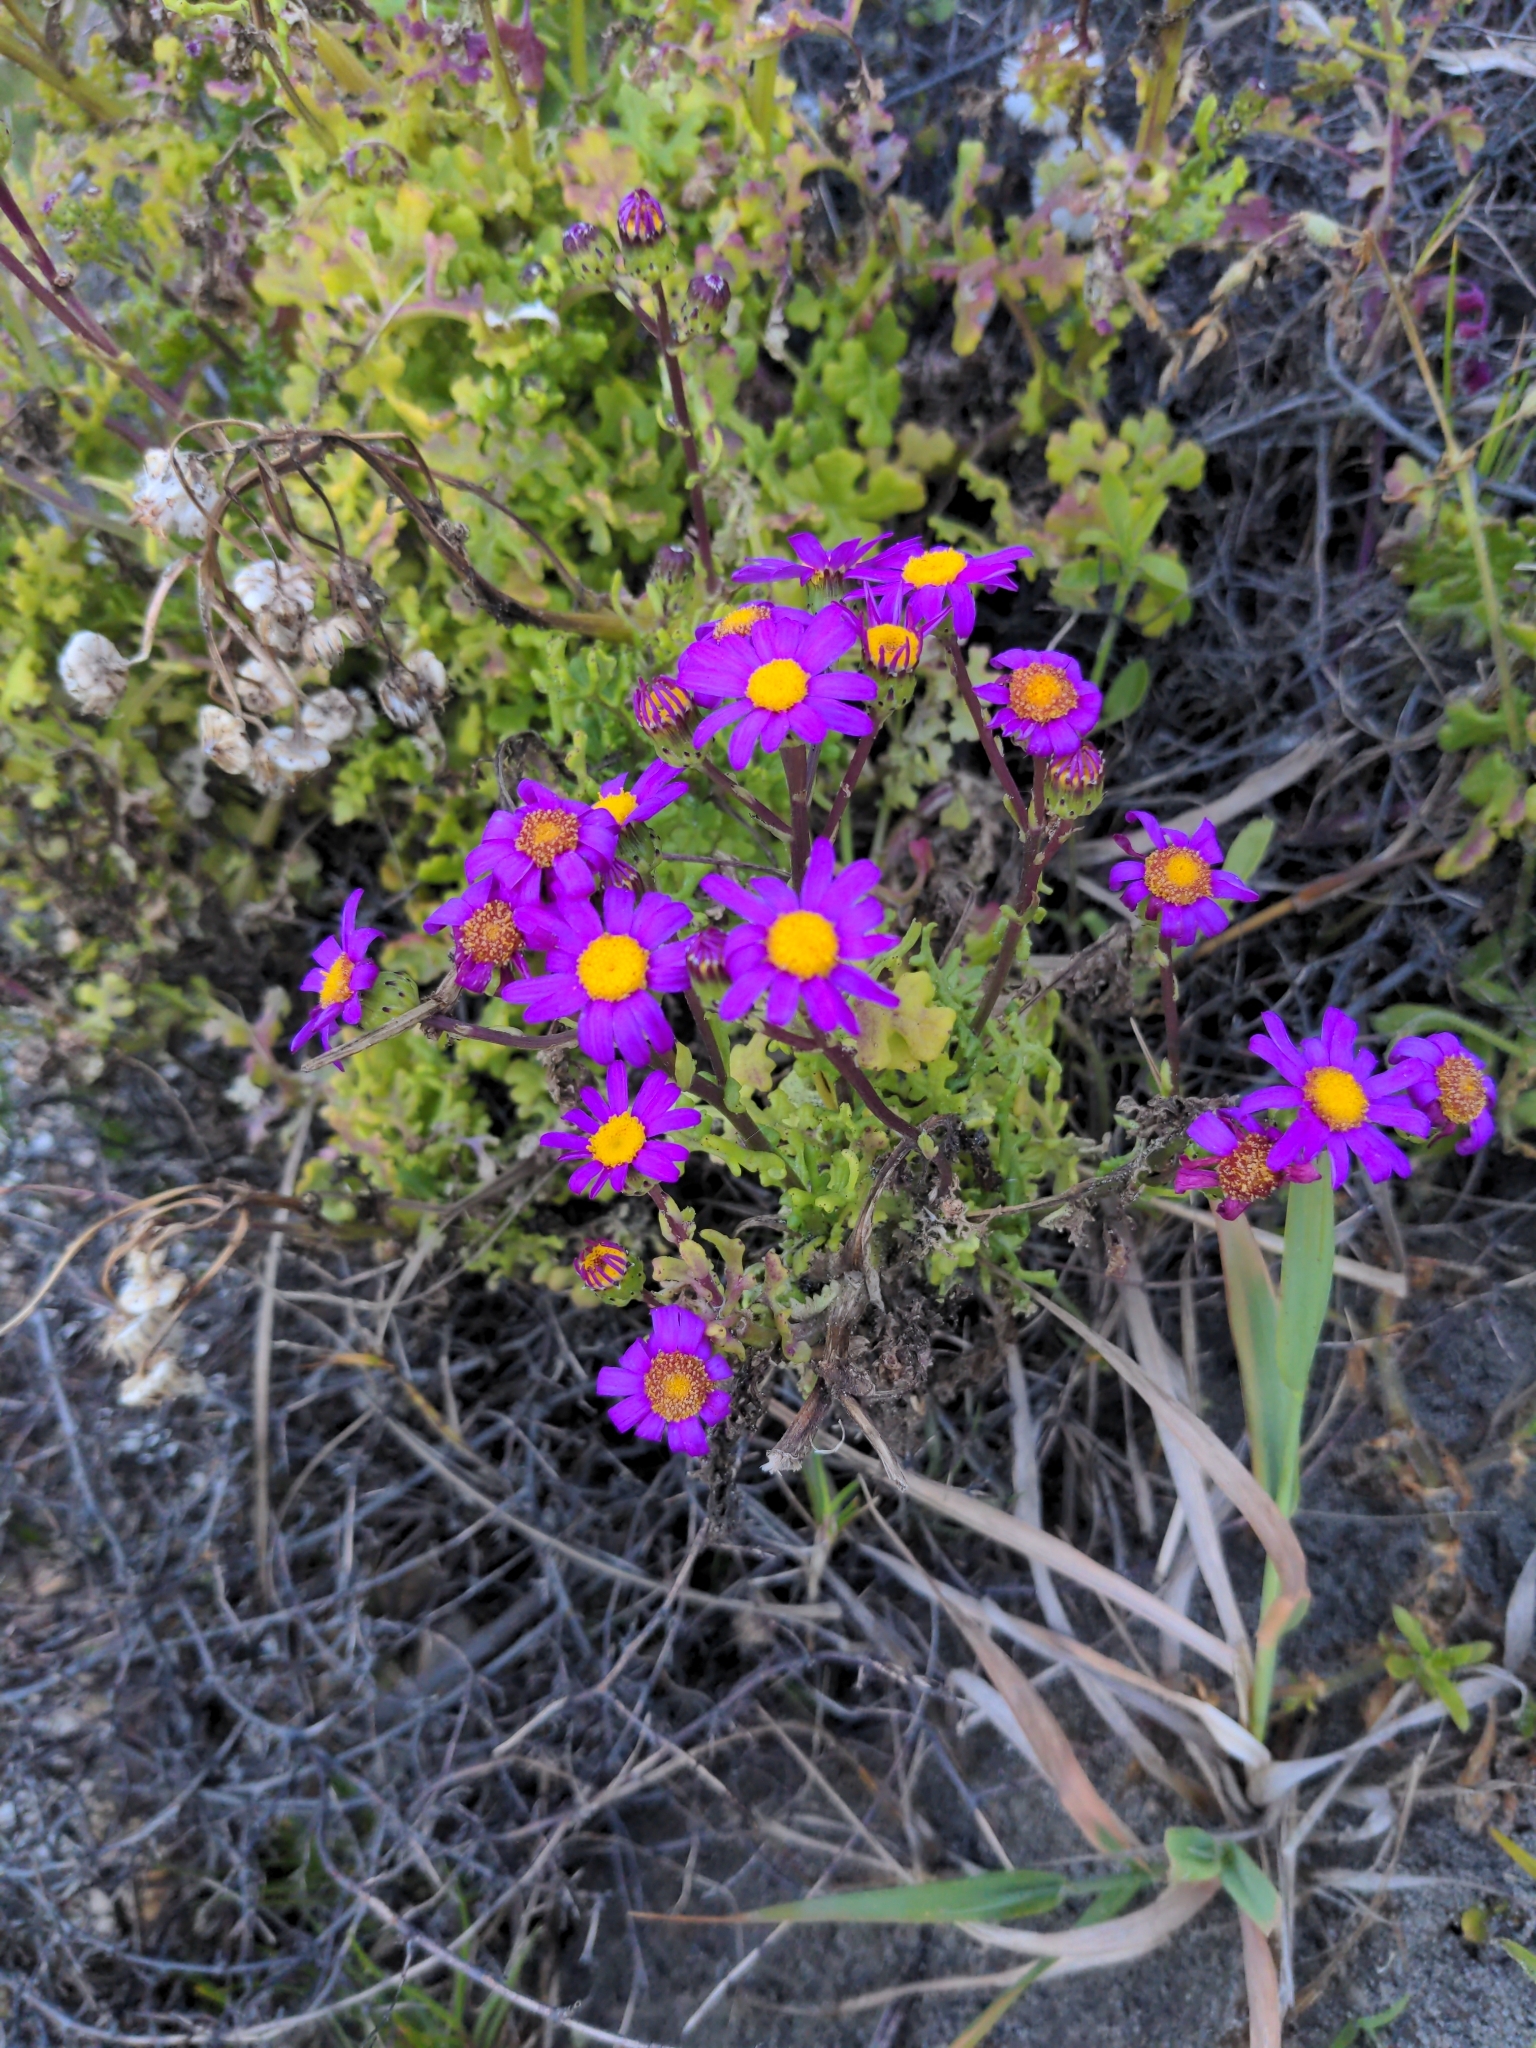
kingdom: Plantae
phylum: Tracheophyta
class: Magnoliopsida
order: Asterales
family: Asteraceae
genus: Senecio
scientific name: Senecio elegans
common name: Purple groundsel
